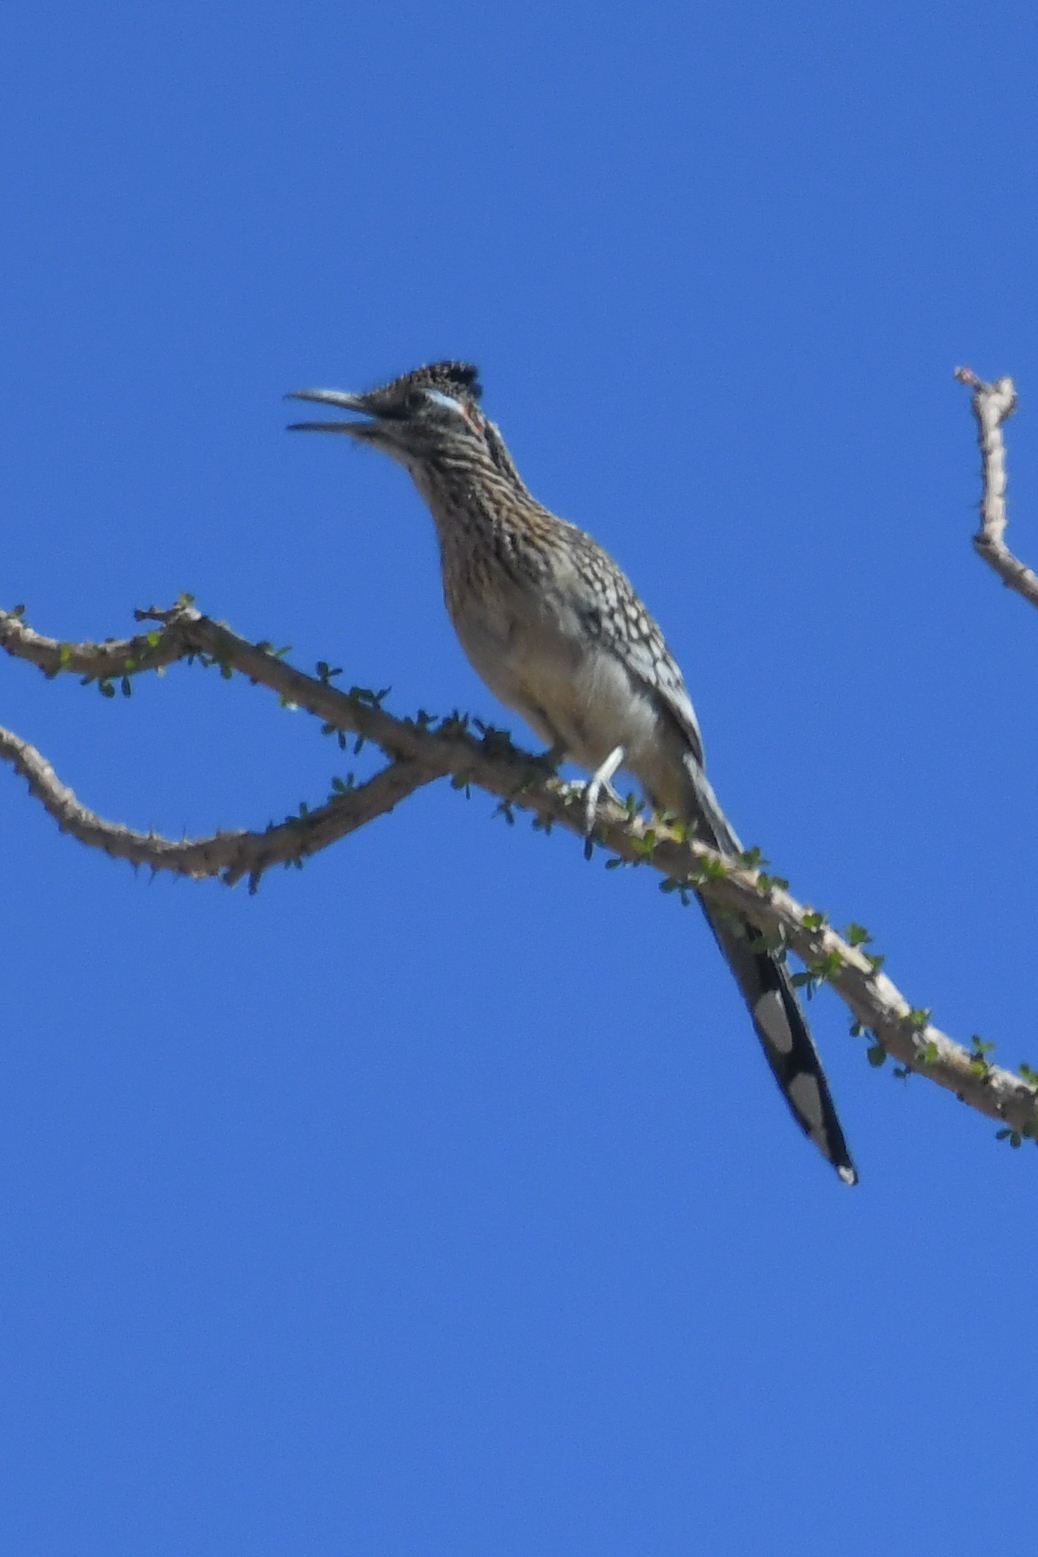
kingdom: Animalia
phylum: Chordata
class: Aves
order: Cuculiformes
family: Cuculidae
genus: Geococcyx
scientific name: Geococcyx californianus
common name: Greater roadrunner
